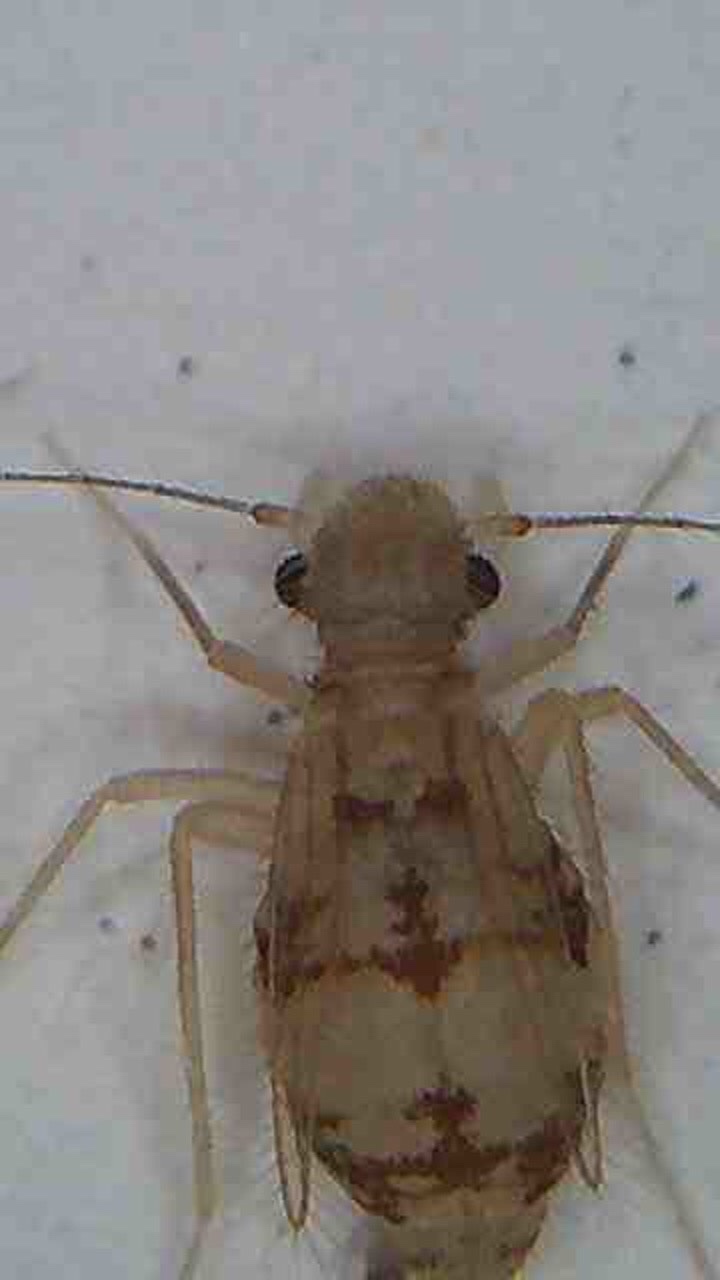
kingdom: Animalia
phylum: Arthropoda
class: Insecta
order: Psocodea
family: Psyllipsocidae
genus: Dorypteryx
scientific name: Dorypteryx longipennis
